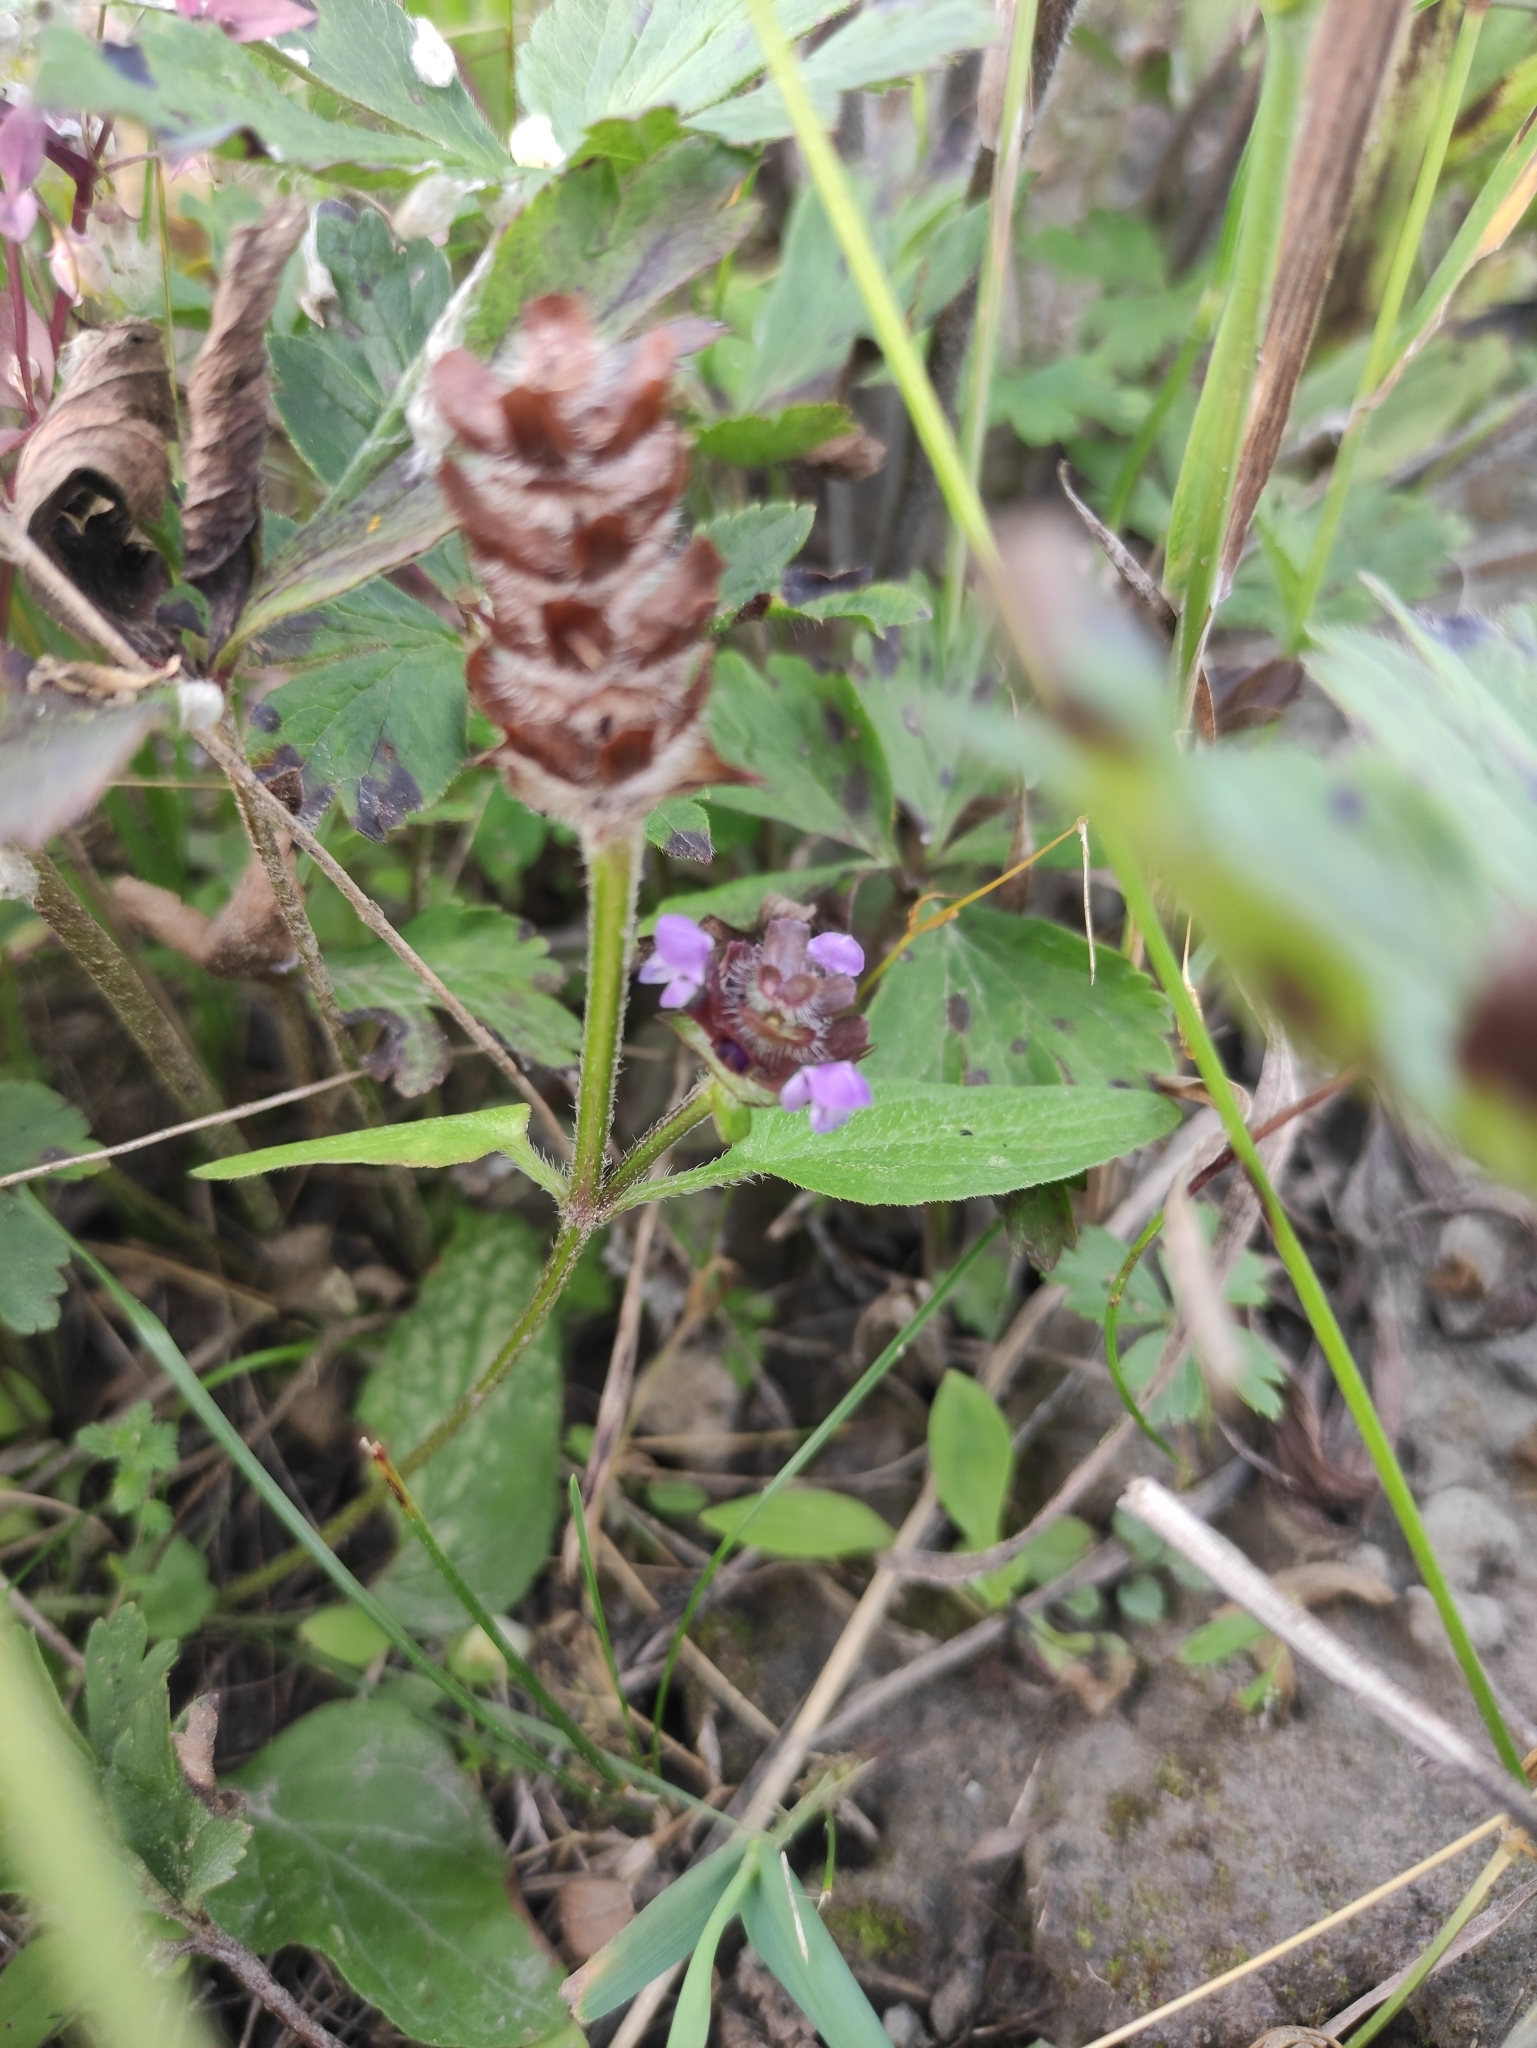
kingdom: Plantae
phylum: Tracheophyta
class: Magnoliopsida
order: Lamiales
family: Lamiaceae
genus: Prunella
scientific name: Prunella vulgaris
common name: Heal-all
